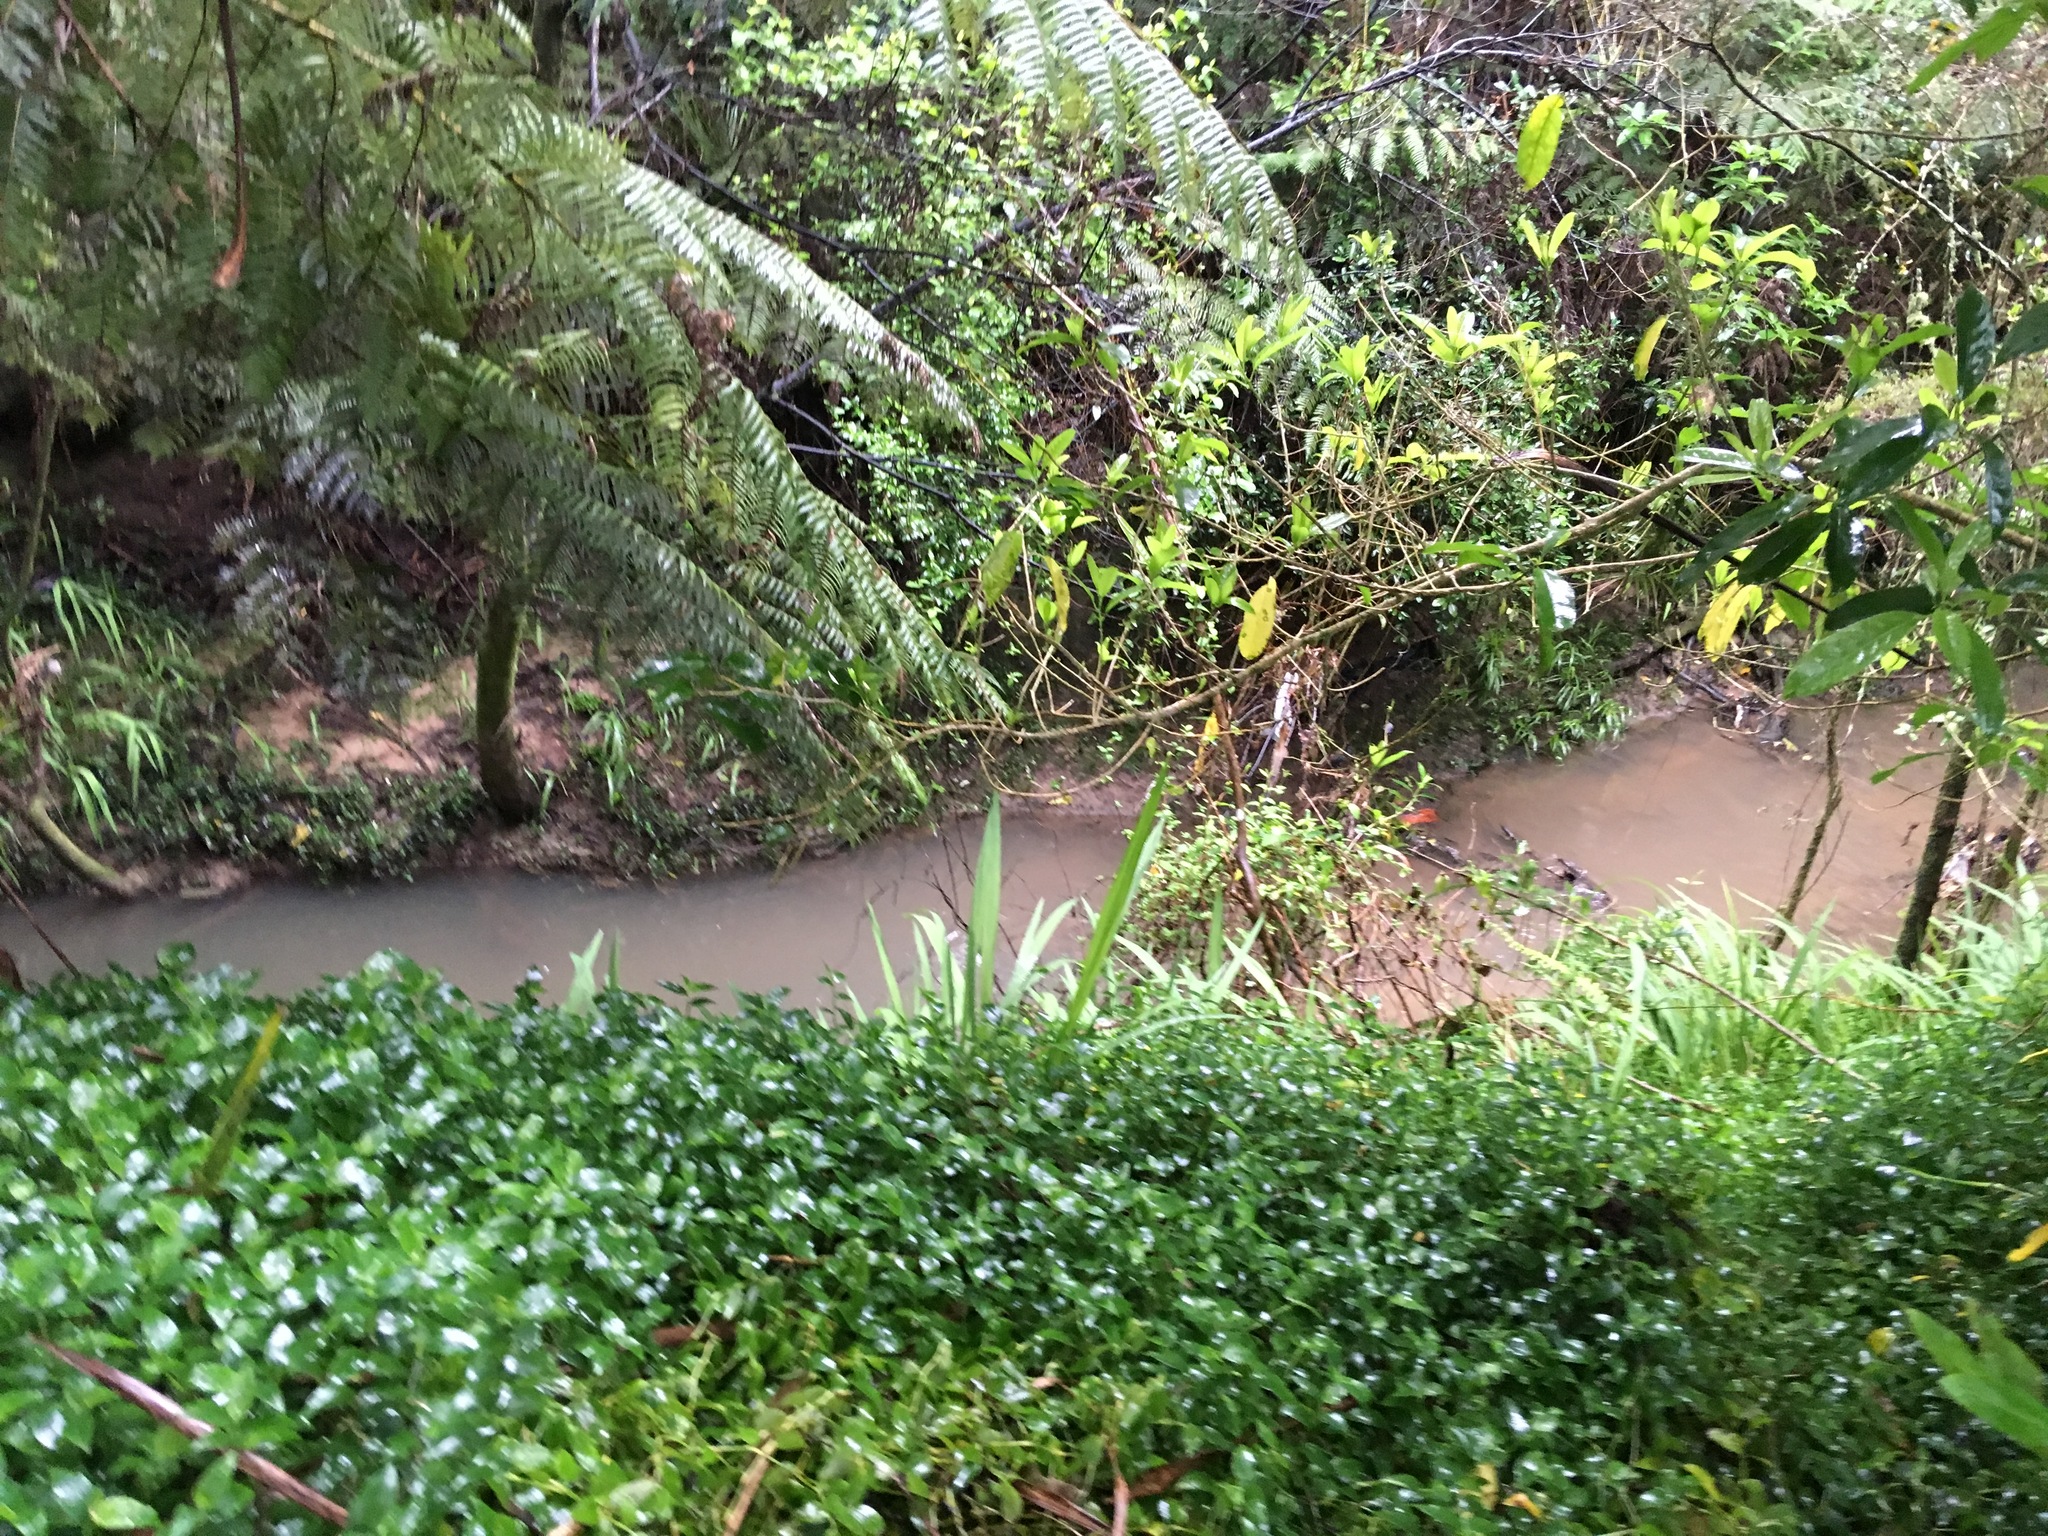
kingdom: Plantae
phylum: Tracheophyta
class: Liliopsida
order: Commelinales
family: Commelinaceae
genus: Tradescantia
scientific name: Tradescantia fluminensis
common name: Wandering-jew
